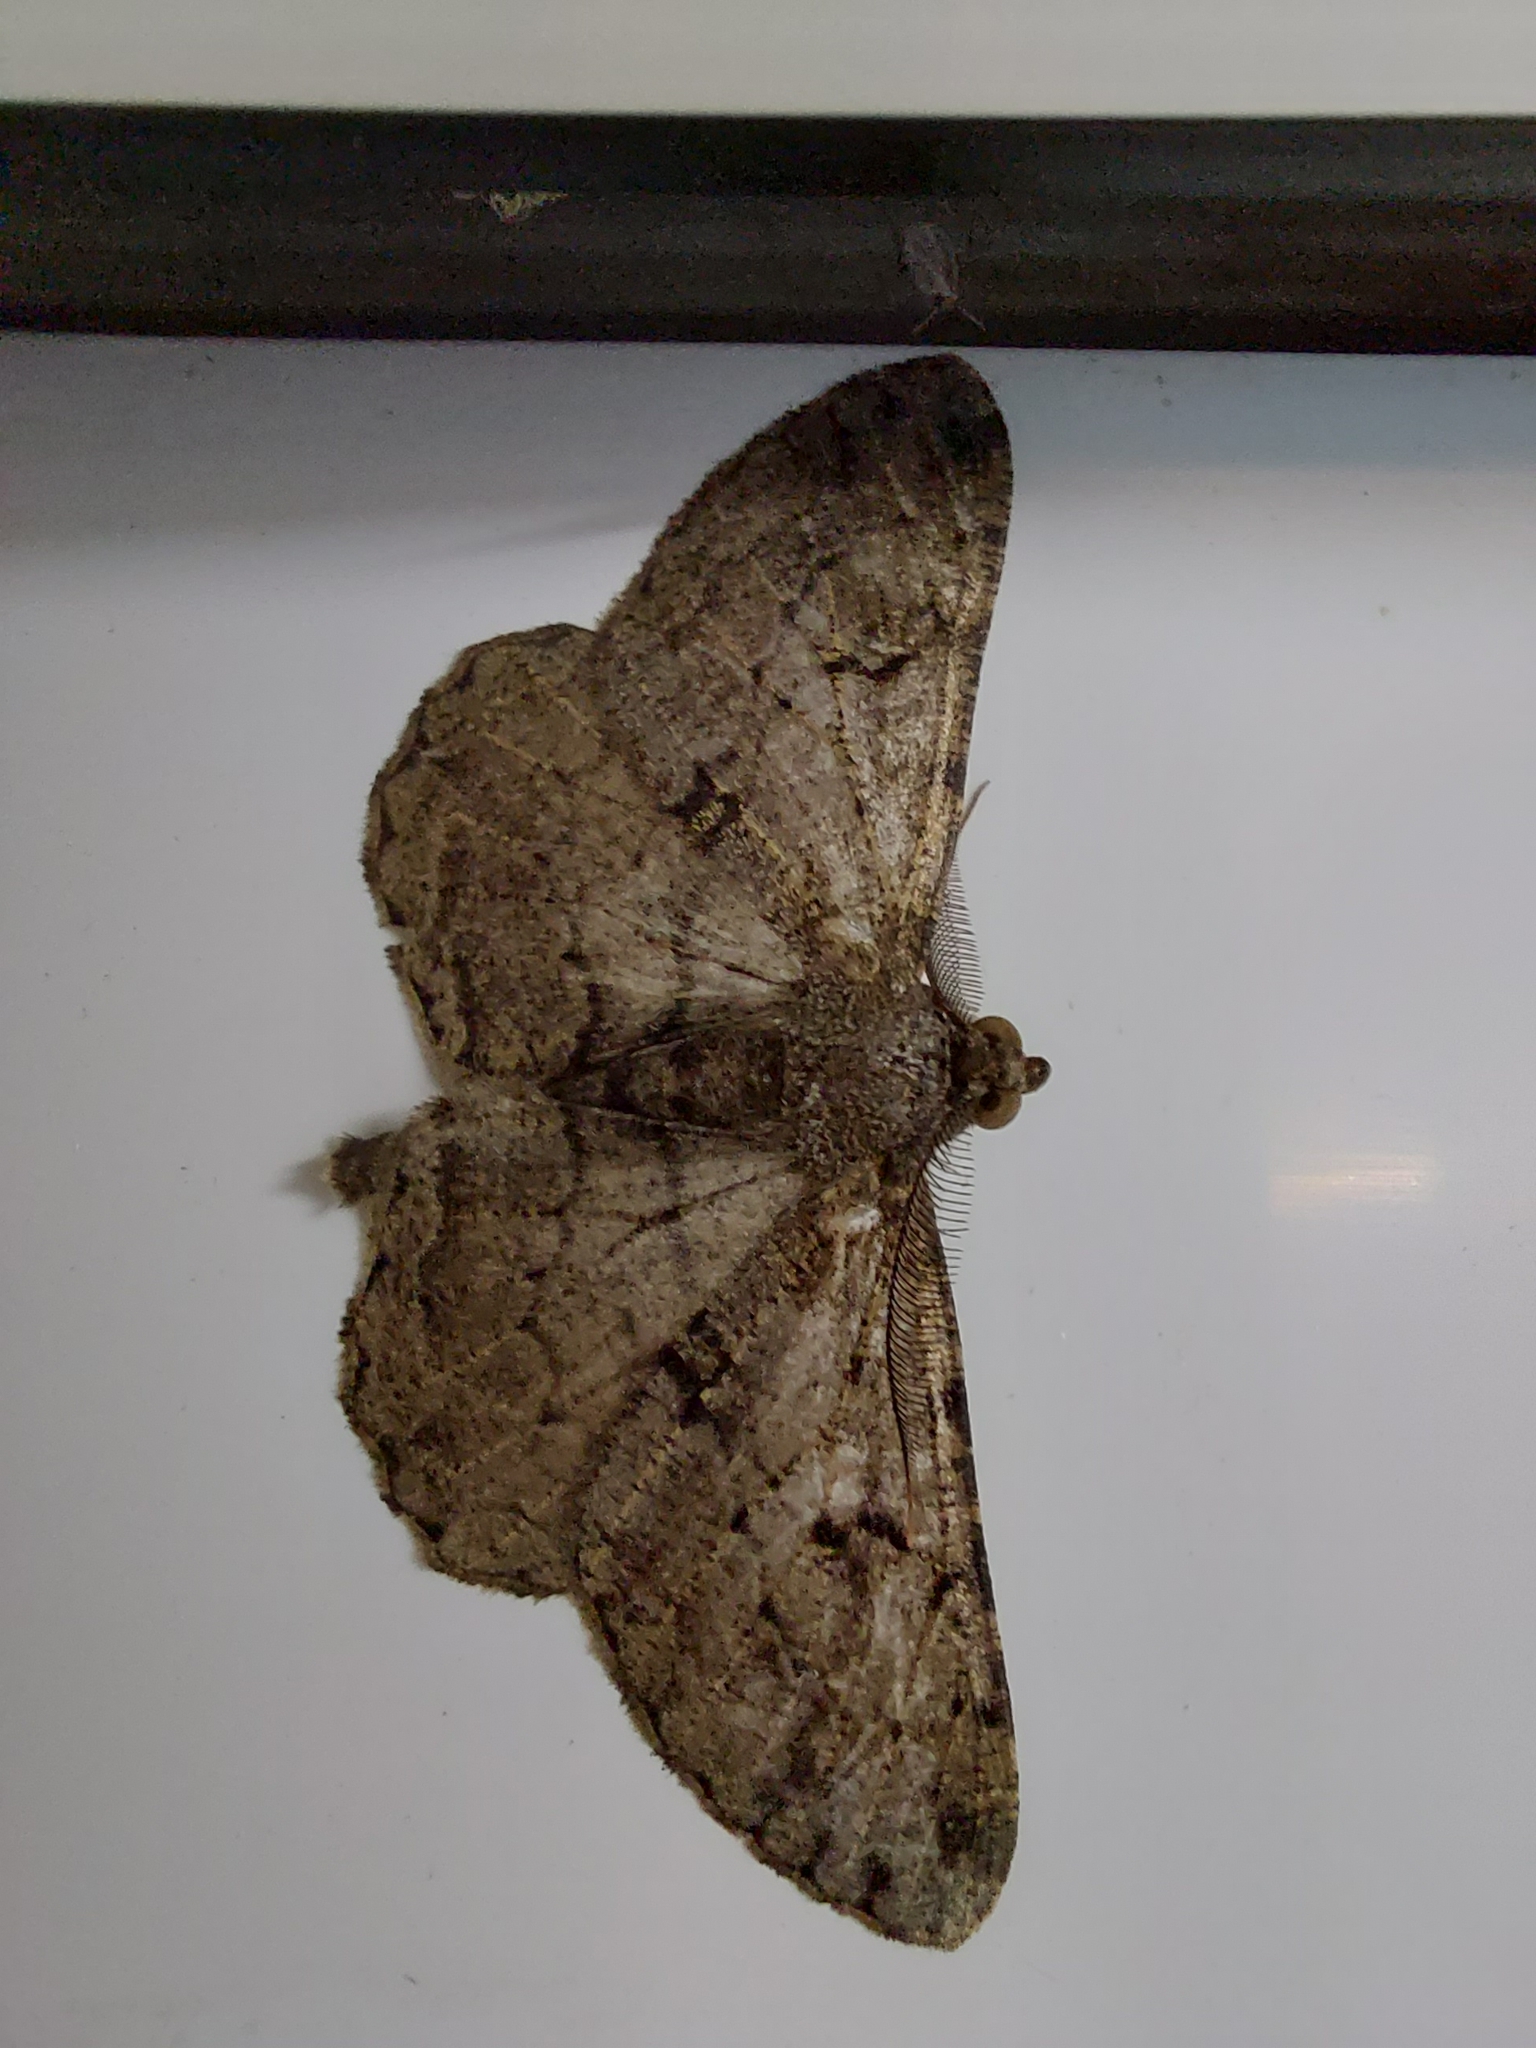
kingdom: Animalia
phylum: Arthropoda
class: Insecta
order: Lepidoptera
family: Geometridae
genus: Peribatodes
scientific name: Peribatodes rhomboidaria
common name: Willow beauty
